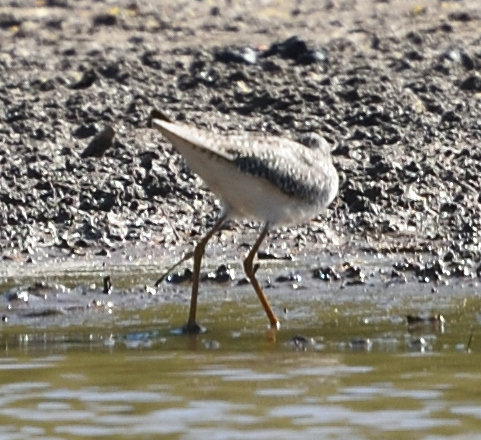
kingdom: Animalia
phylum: Chordata
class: Aves
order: Charadriiformes
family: Scolopacidae
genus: Tringa
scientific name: Tringa flavipes
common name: Lesser yellowlegs
